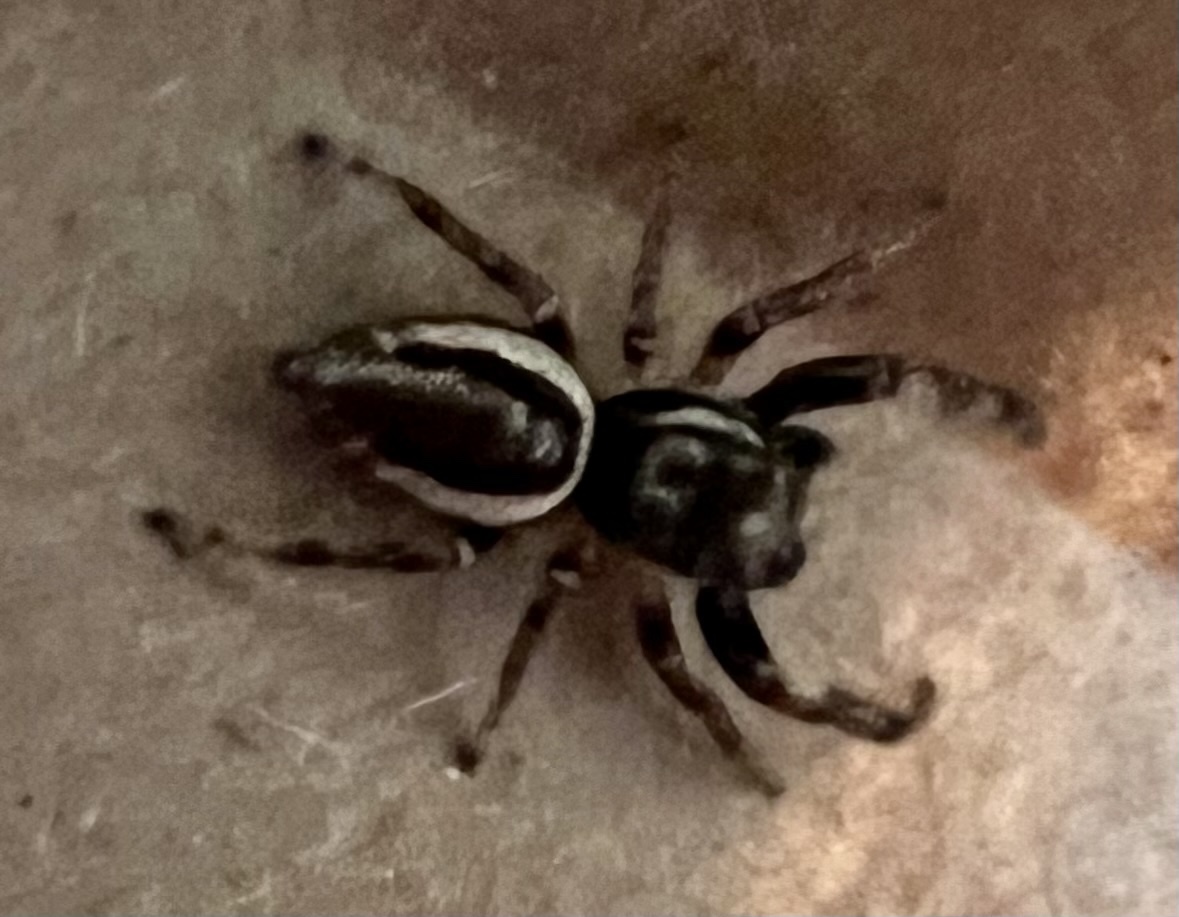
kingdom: Animalia
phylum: Arthropoda
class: Arachnida
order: Araneae
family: Salticidae
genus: Eris
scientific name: Eris militaris
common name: Bronze jumper
